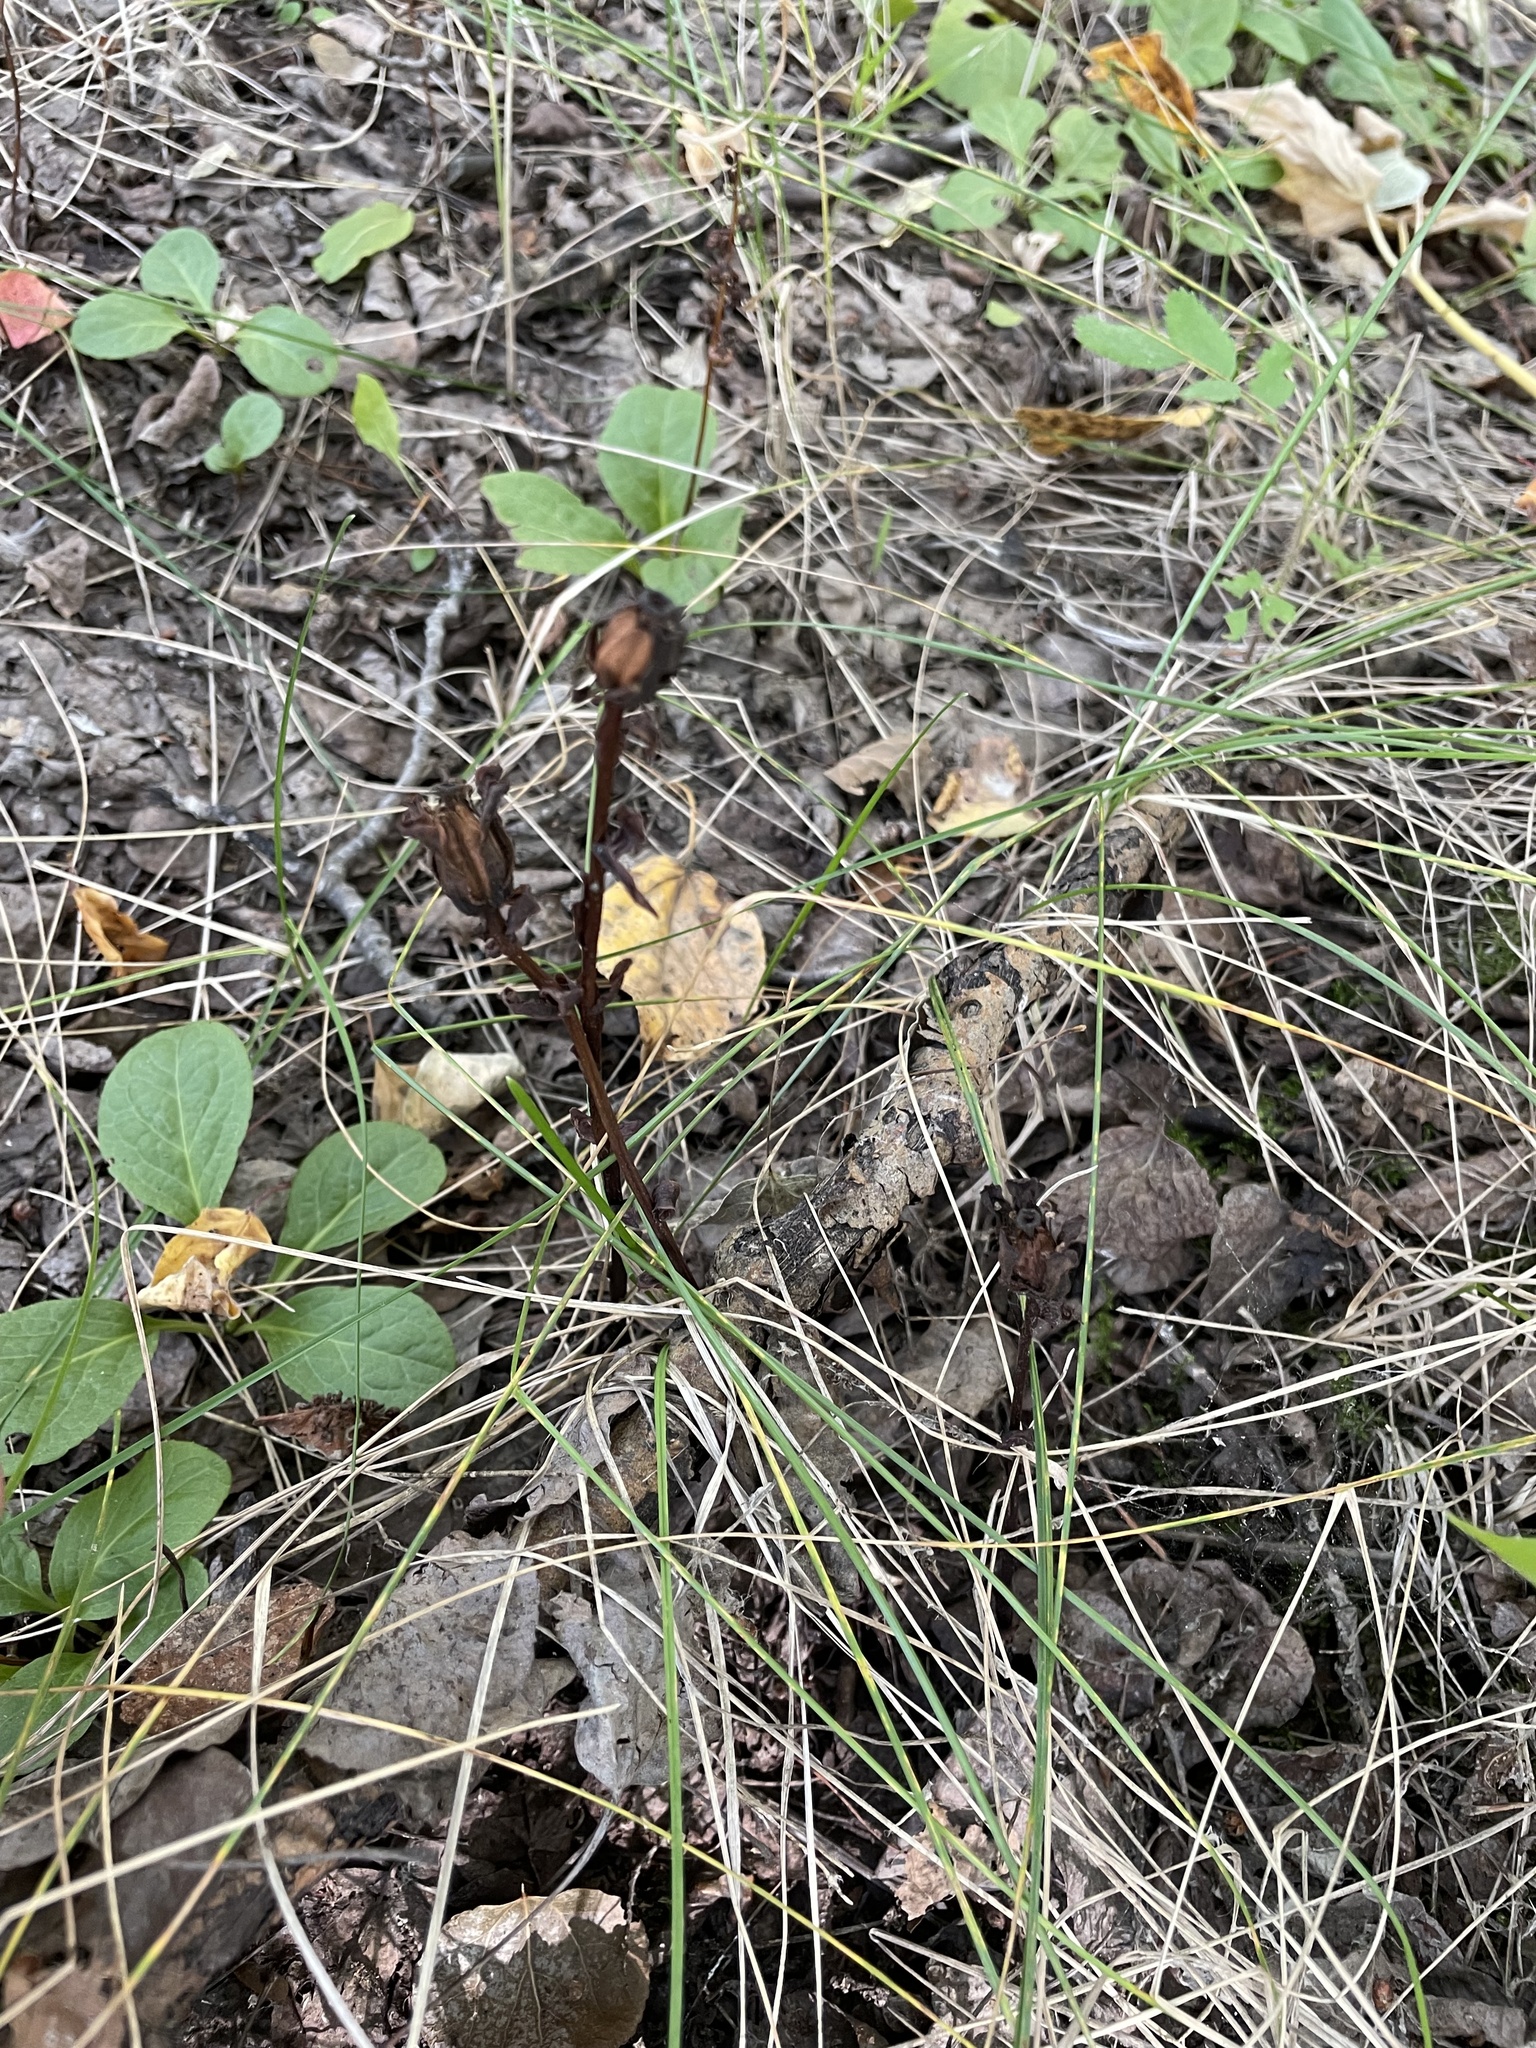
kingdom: Plantae
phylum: Tracheophyta
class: Magnoliopsida
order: Ericales
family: Ericaceae
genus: Monotropa
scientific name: Monotropa uniflora
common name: Convulsion root
